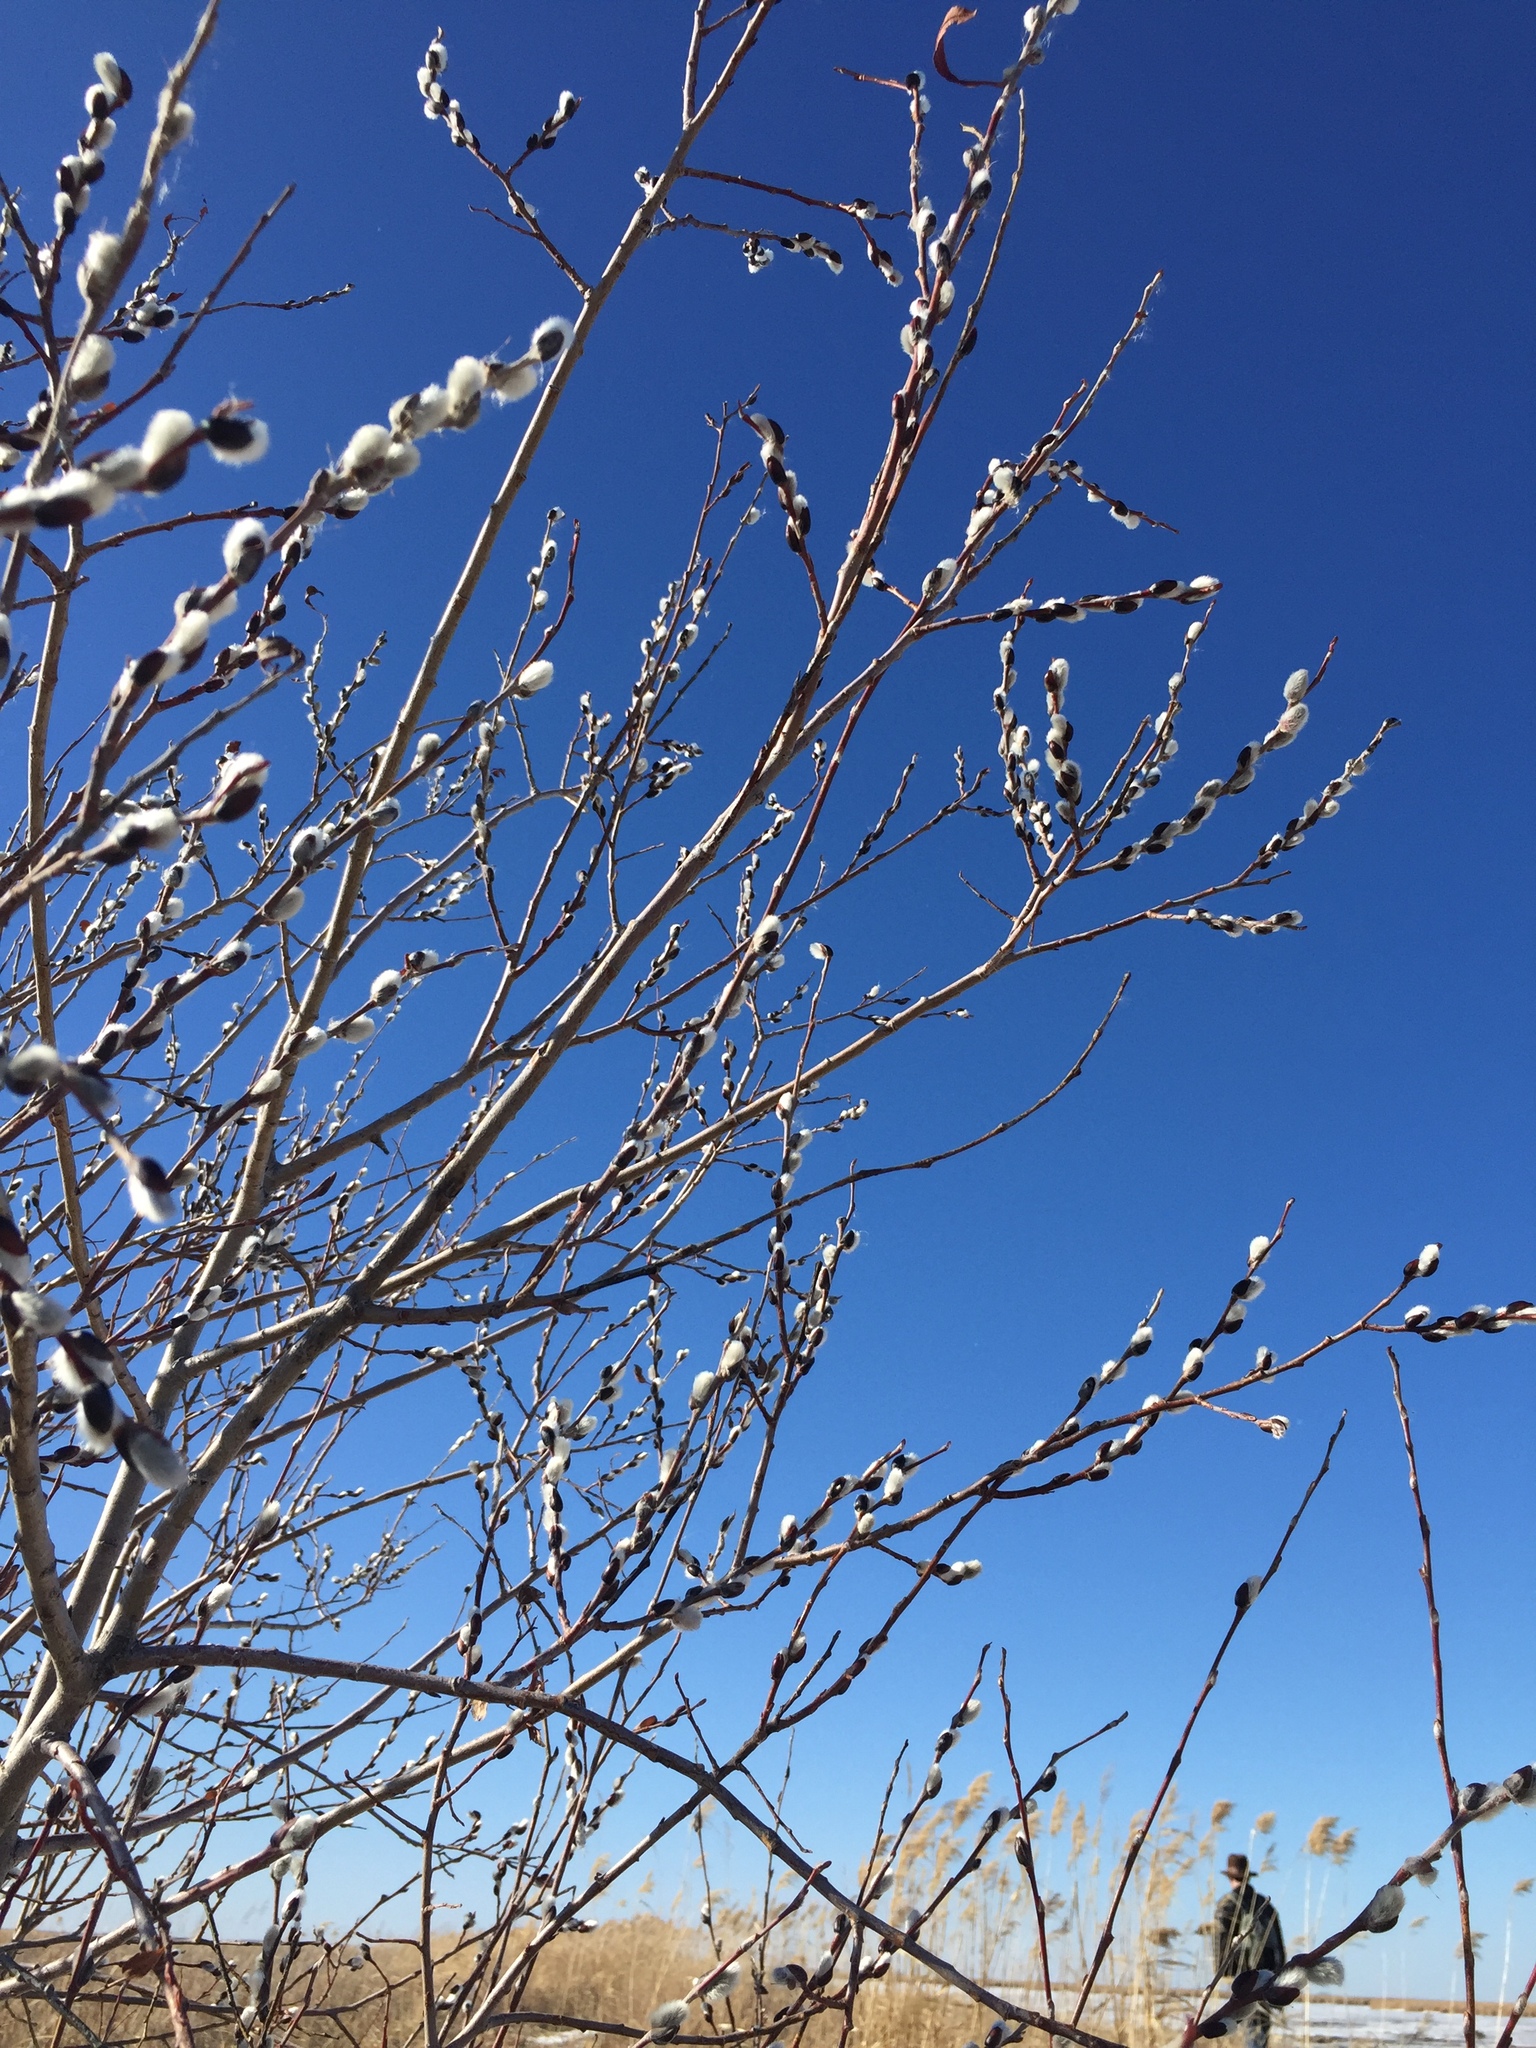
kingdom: Plantae
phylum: Tracheophyta
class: Magnoliopsida
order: Malpighiales
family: Salicaceae
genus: Salix
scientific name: Salix discolor
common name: Glaucous willow
